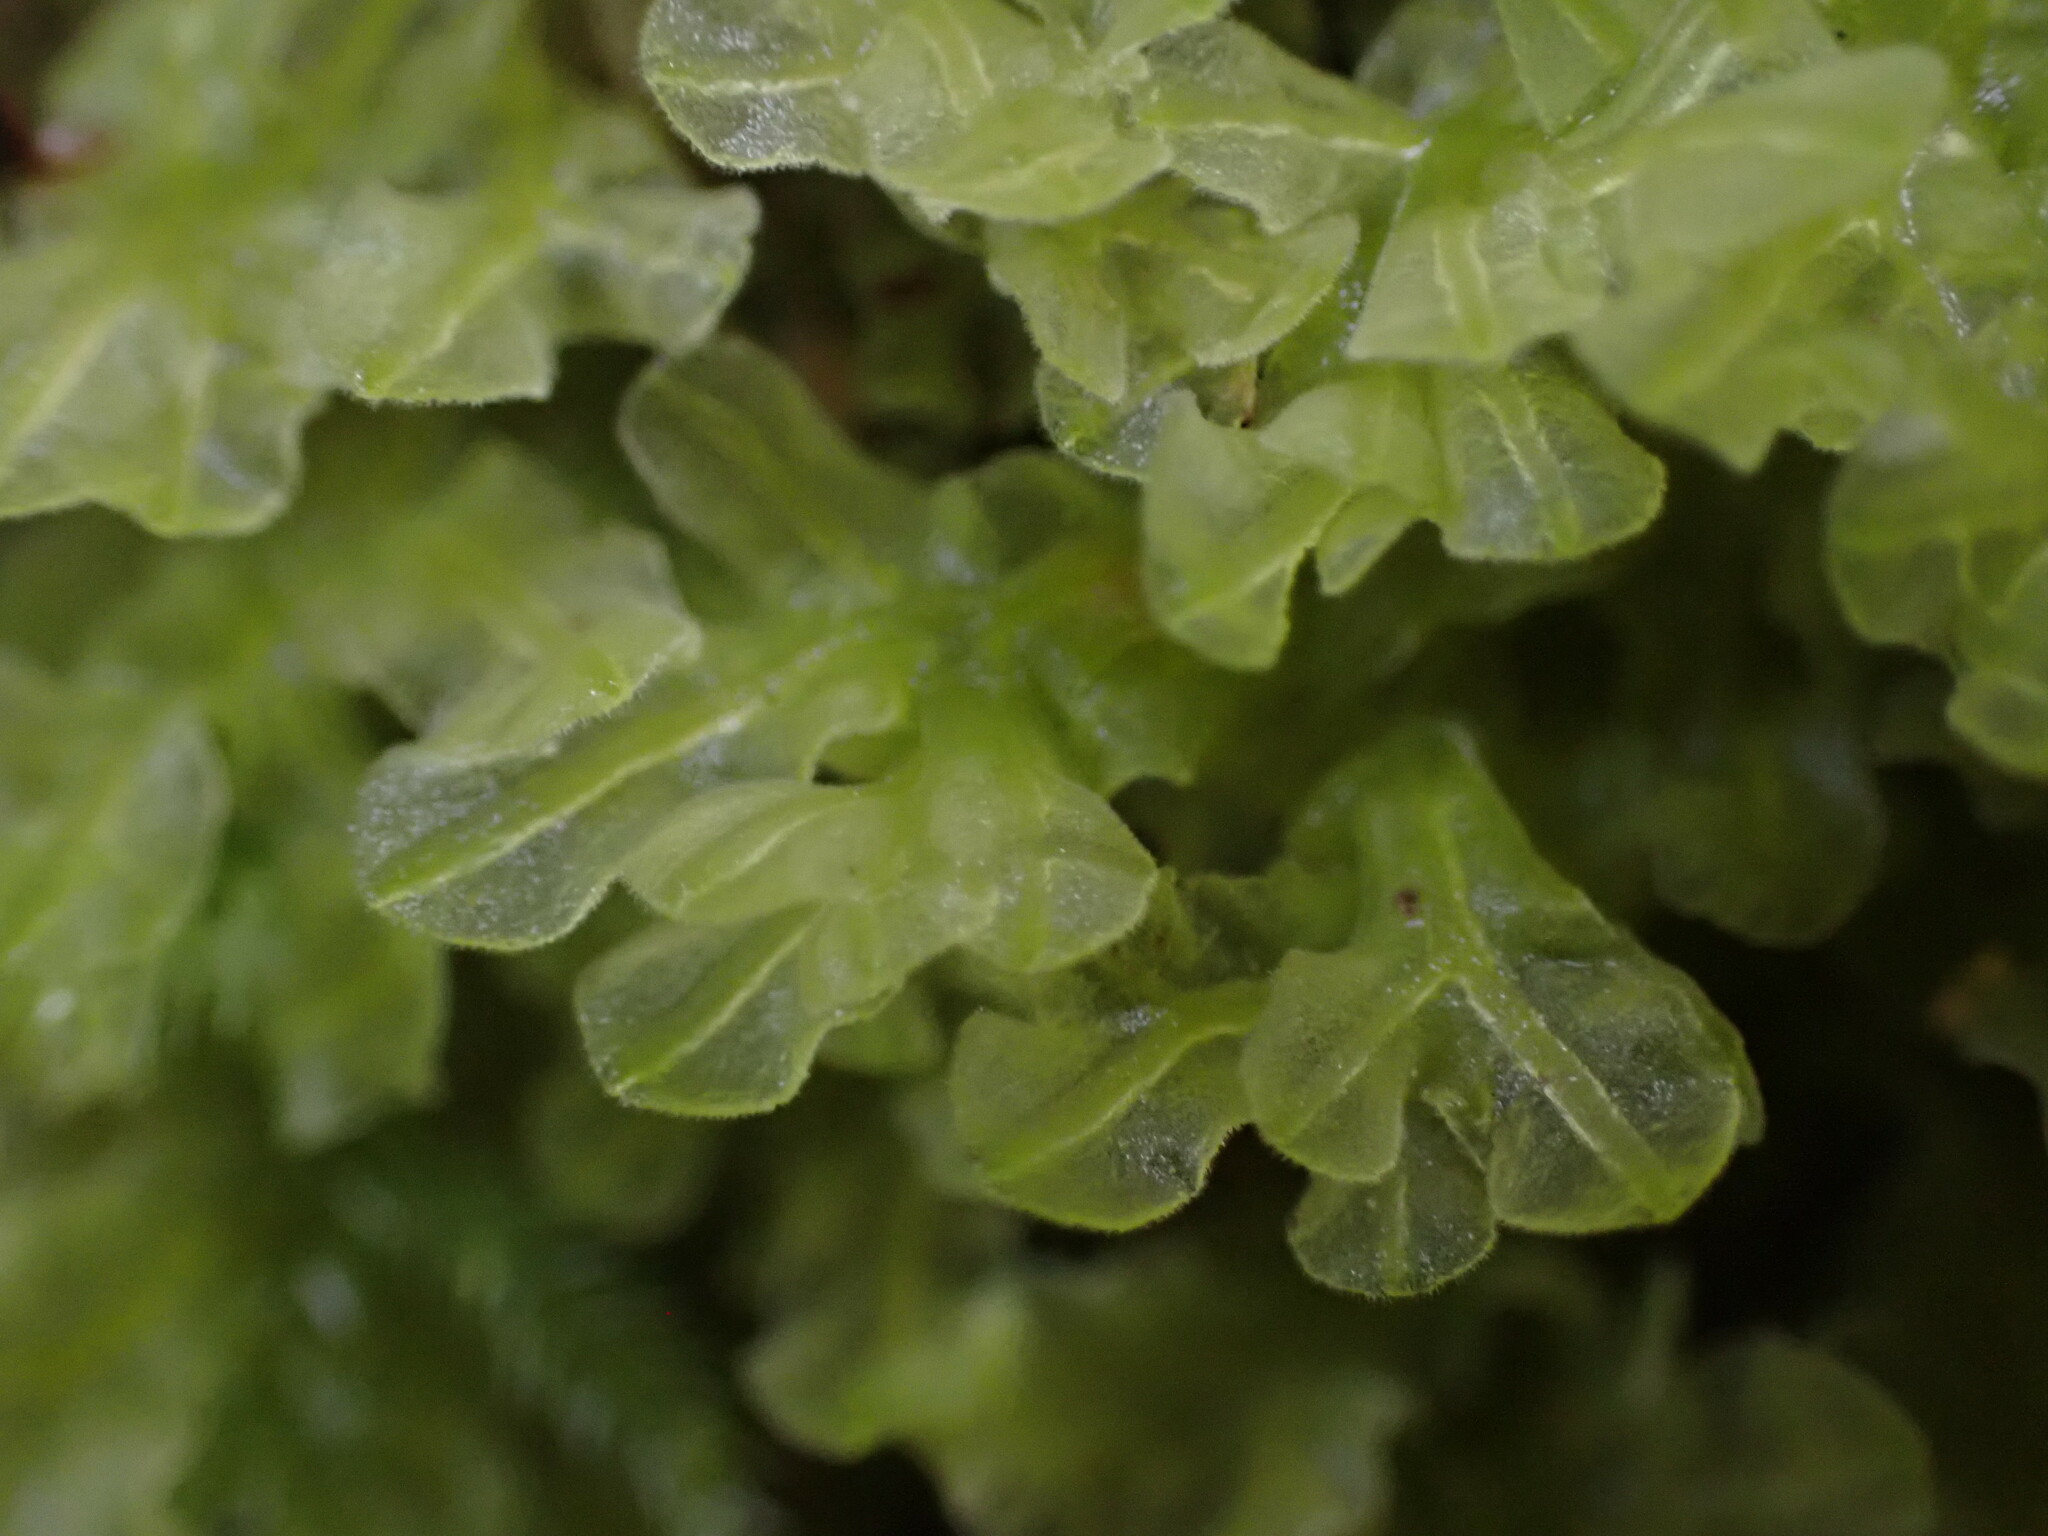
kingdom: Plantae
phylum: Marchantiophyta
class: Jungermanniopsida
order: Metzgeriales
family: Metzgeriaceae
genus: Metzgeria
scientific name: Metzgeria pubescens
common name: Downy veilwort
